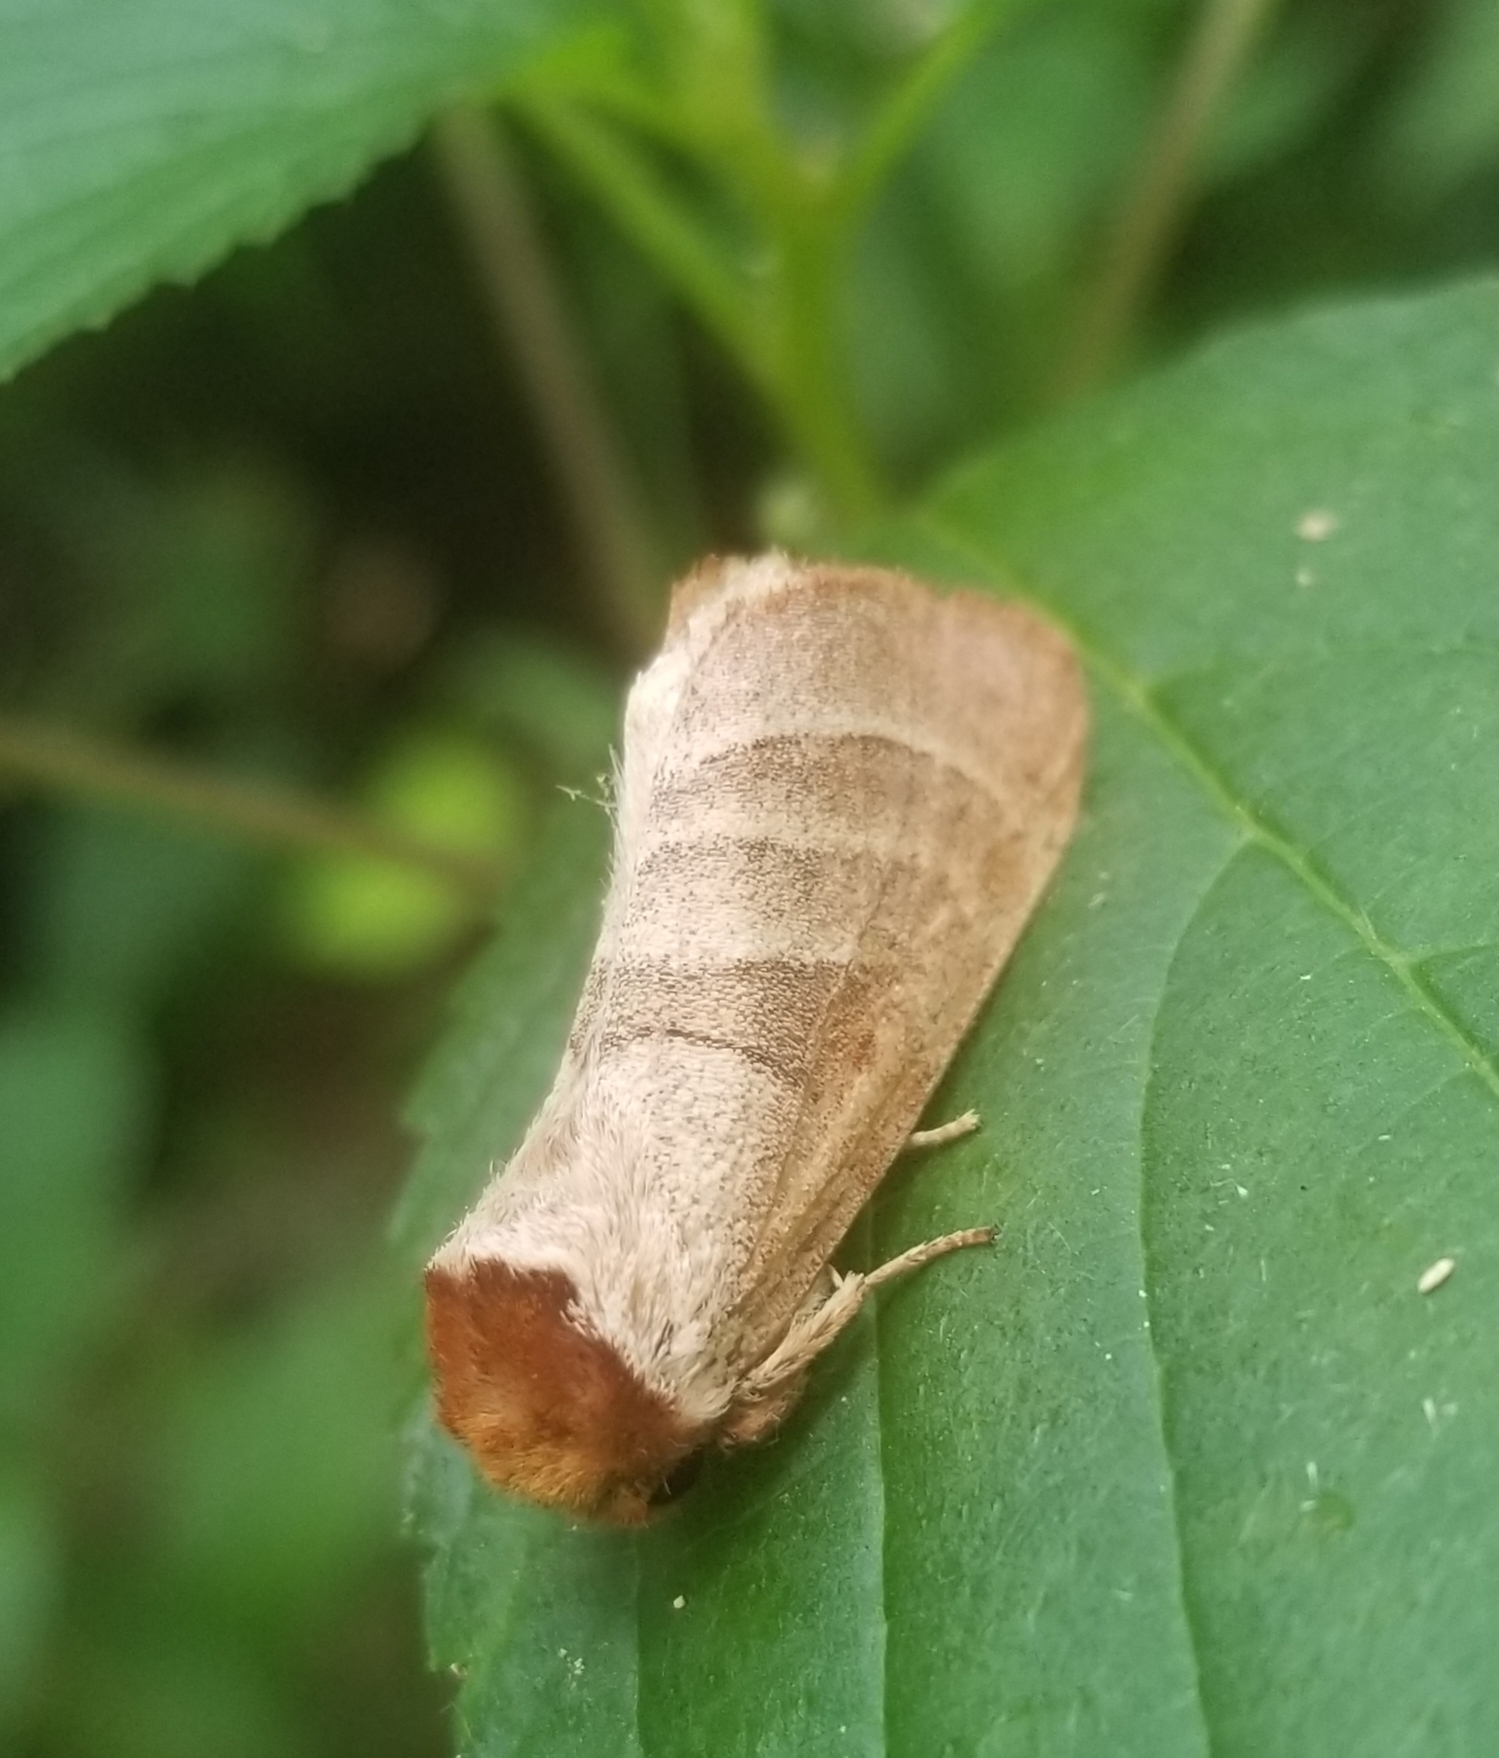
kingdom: Animalia
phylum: Arthropoda
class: Insecta
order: Lepidoptera
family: Notodontidae
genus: Datana
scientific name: Datana integerrima
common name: Walnut caterpillar
